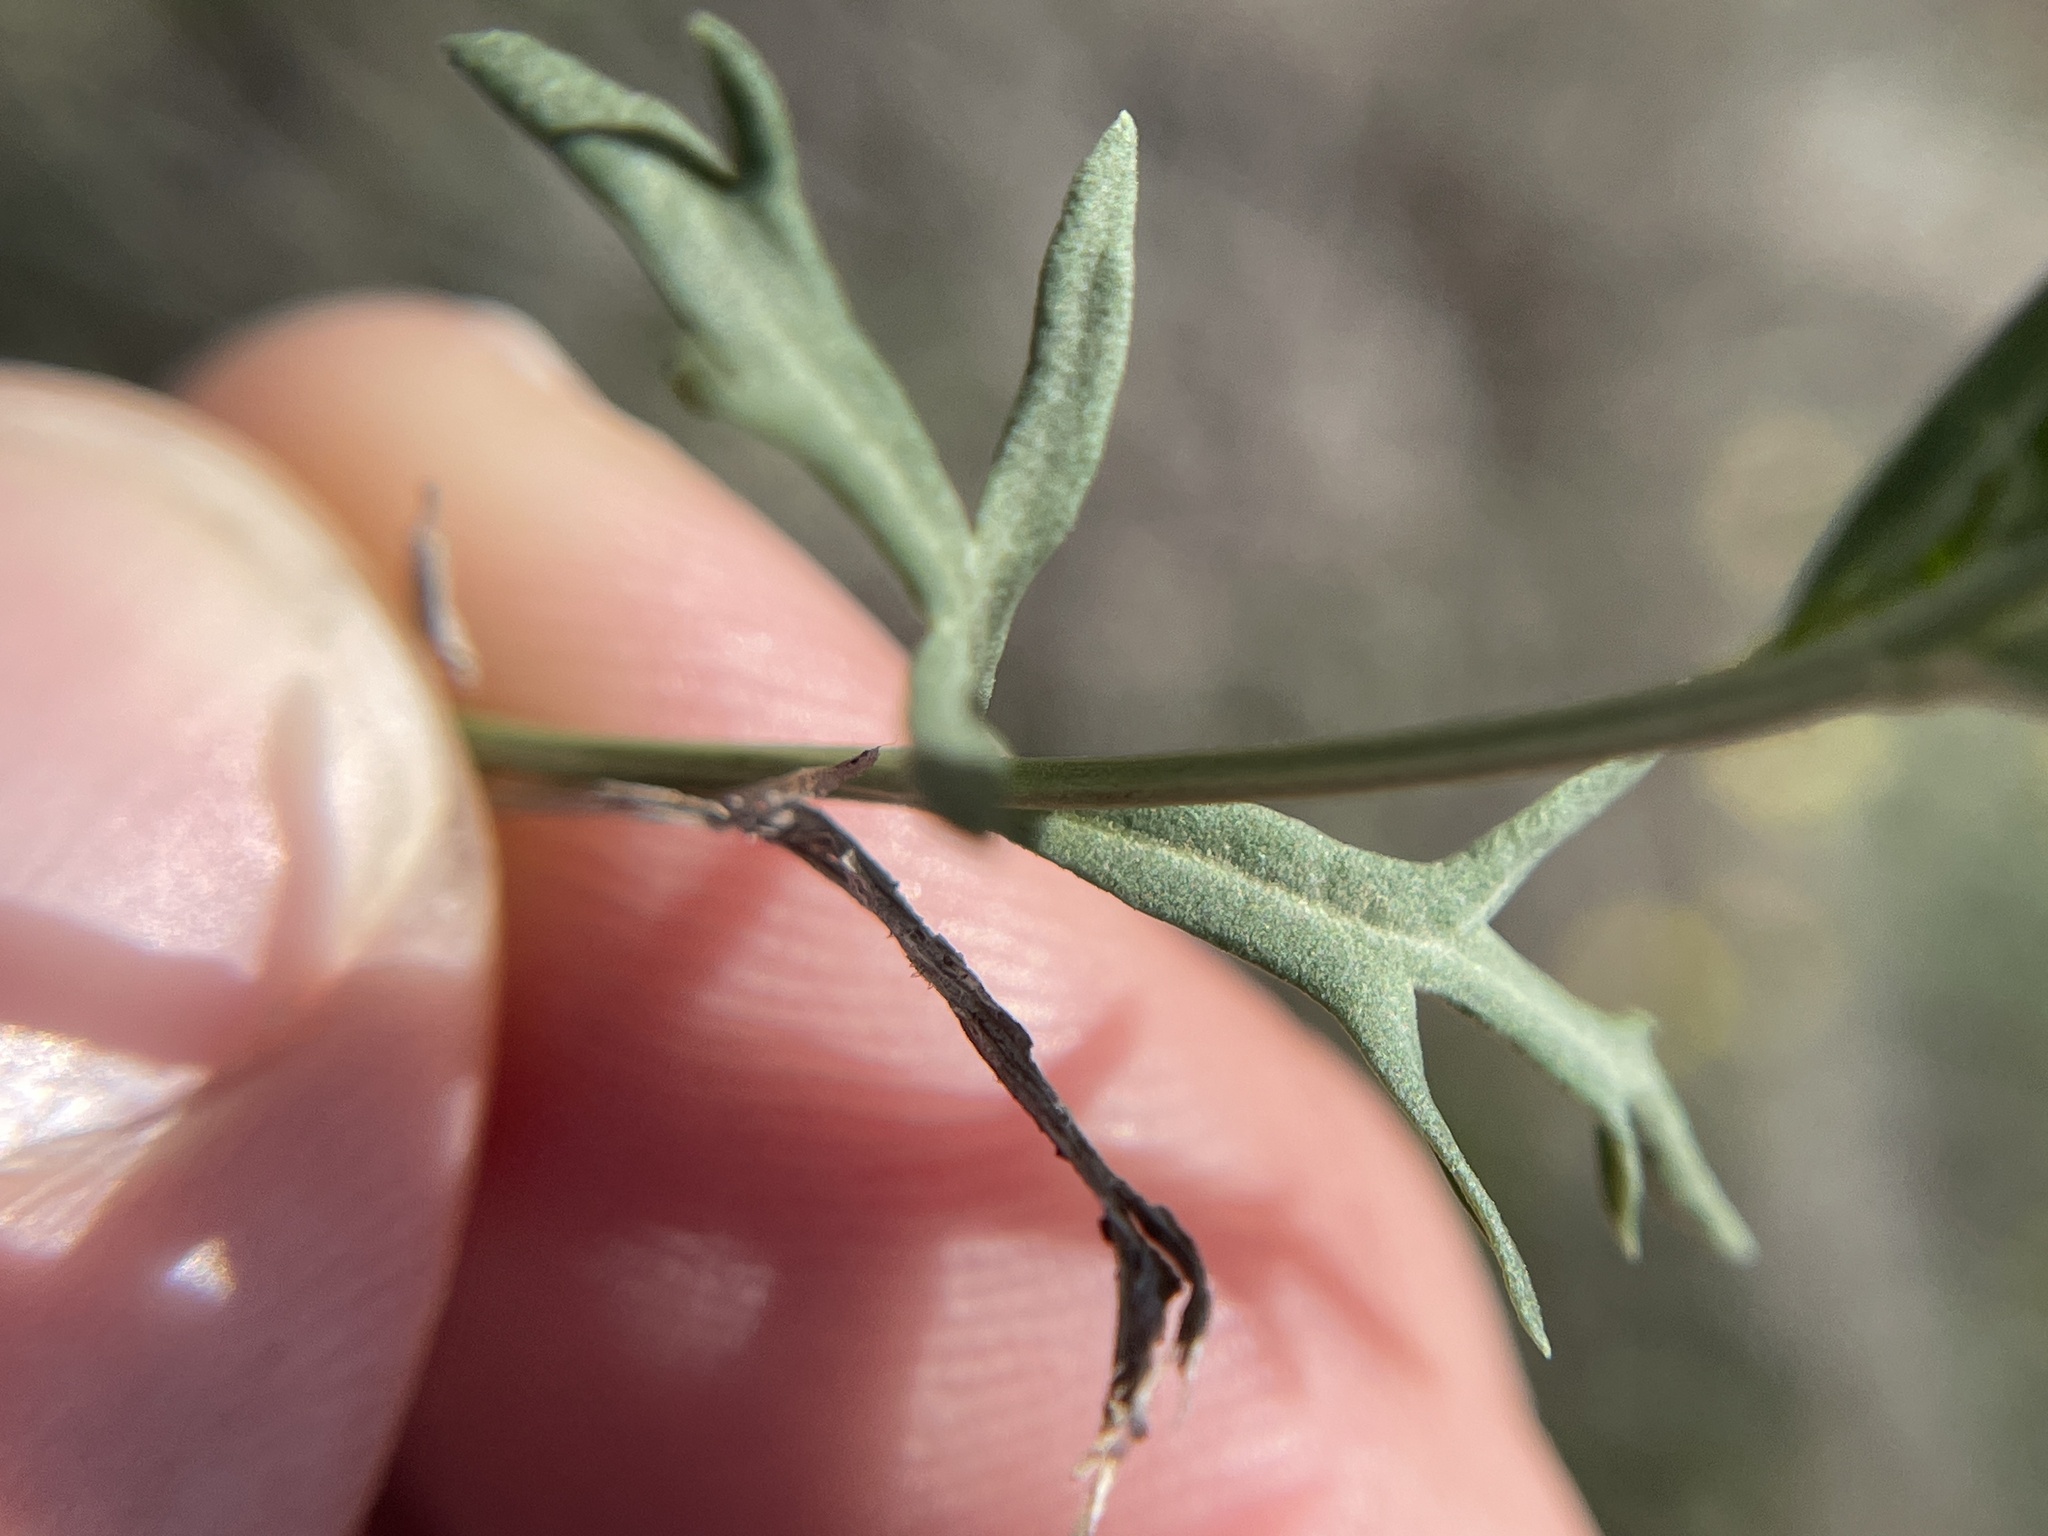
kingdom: Plantae
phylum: Tracheophyta
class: Magnoliopsida
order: Lamiales
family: Oleaceae
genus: Menodora
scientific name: Menodora heterophylla
